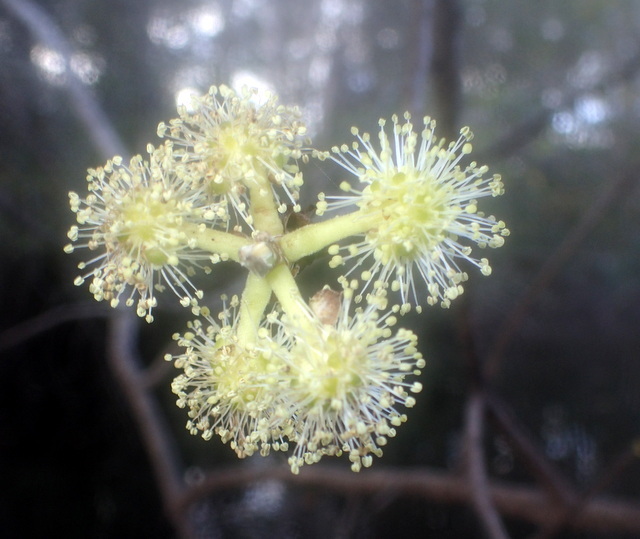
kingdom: Plantae
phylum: Tracheophyta
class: Magnoliopsida
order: Cornales
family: Nyssaceae
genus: Nyssa
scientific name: Nyssa ogeche
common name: Ogeechee tupelo
